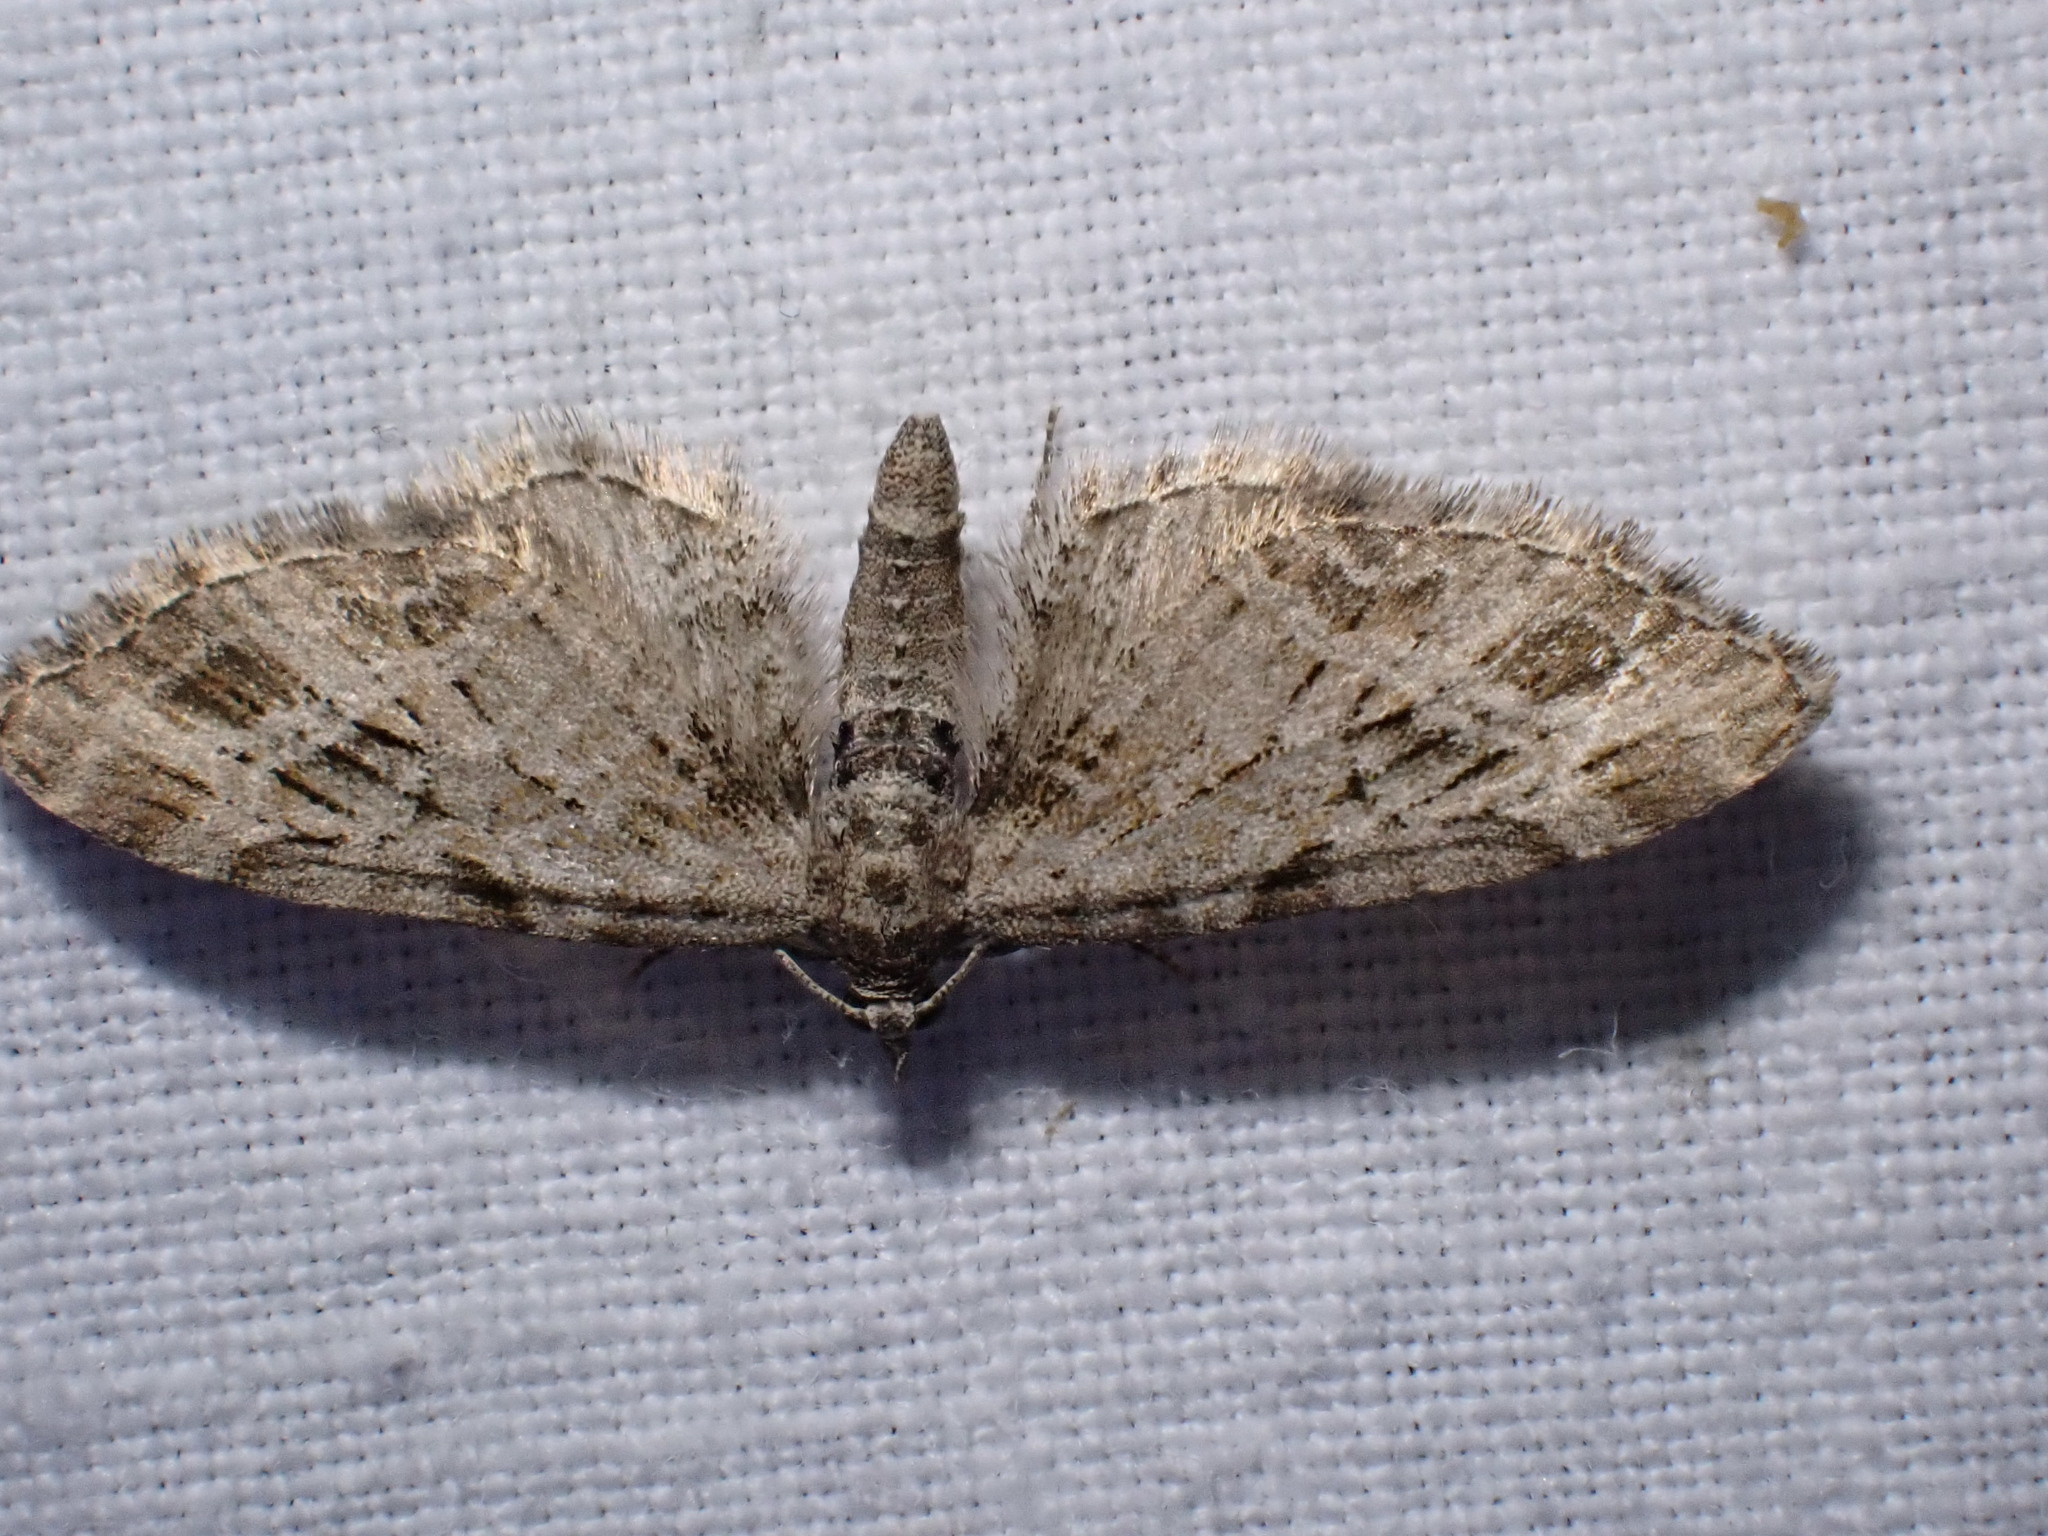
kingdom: Animalia
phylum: Arthropoda
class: Insecta
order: Lepidoptera
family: Geometridae
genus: Eupithecia
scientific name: Eupithecia exiguata
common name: Mottled pug
